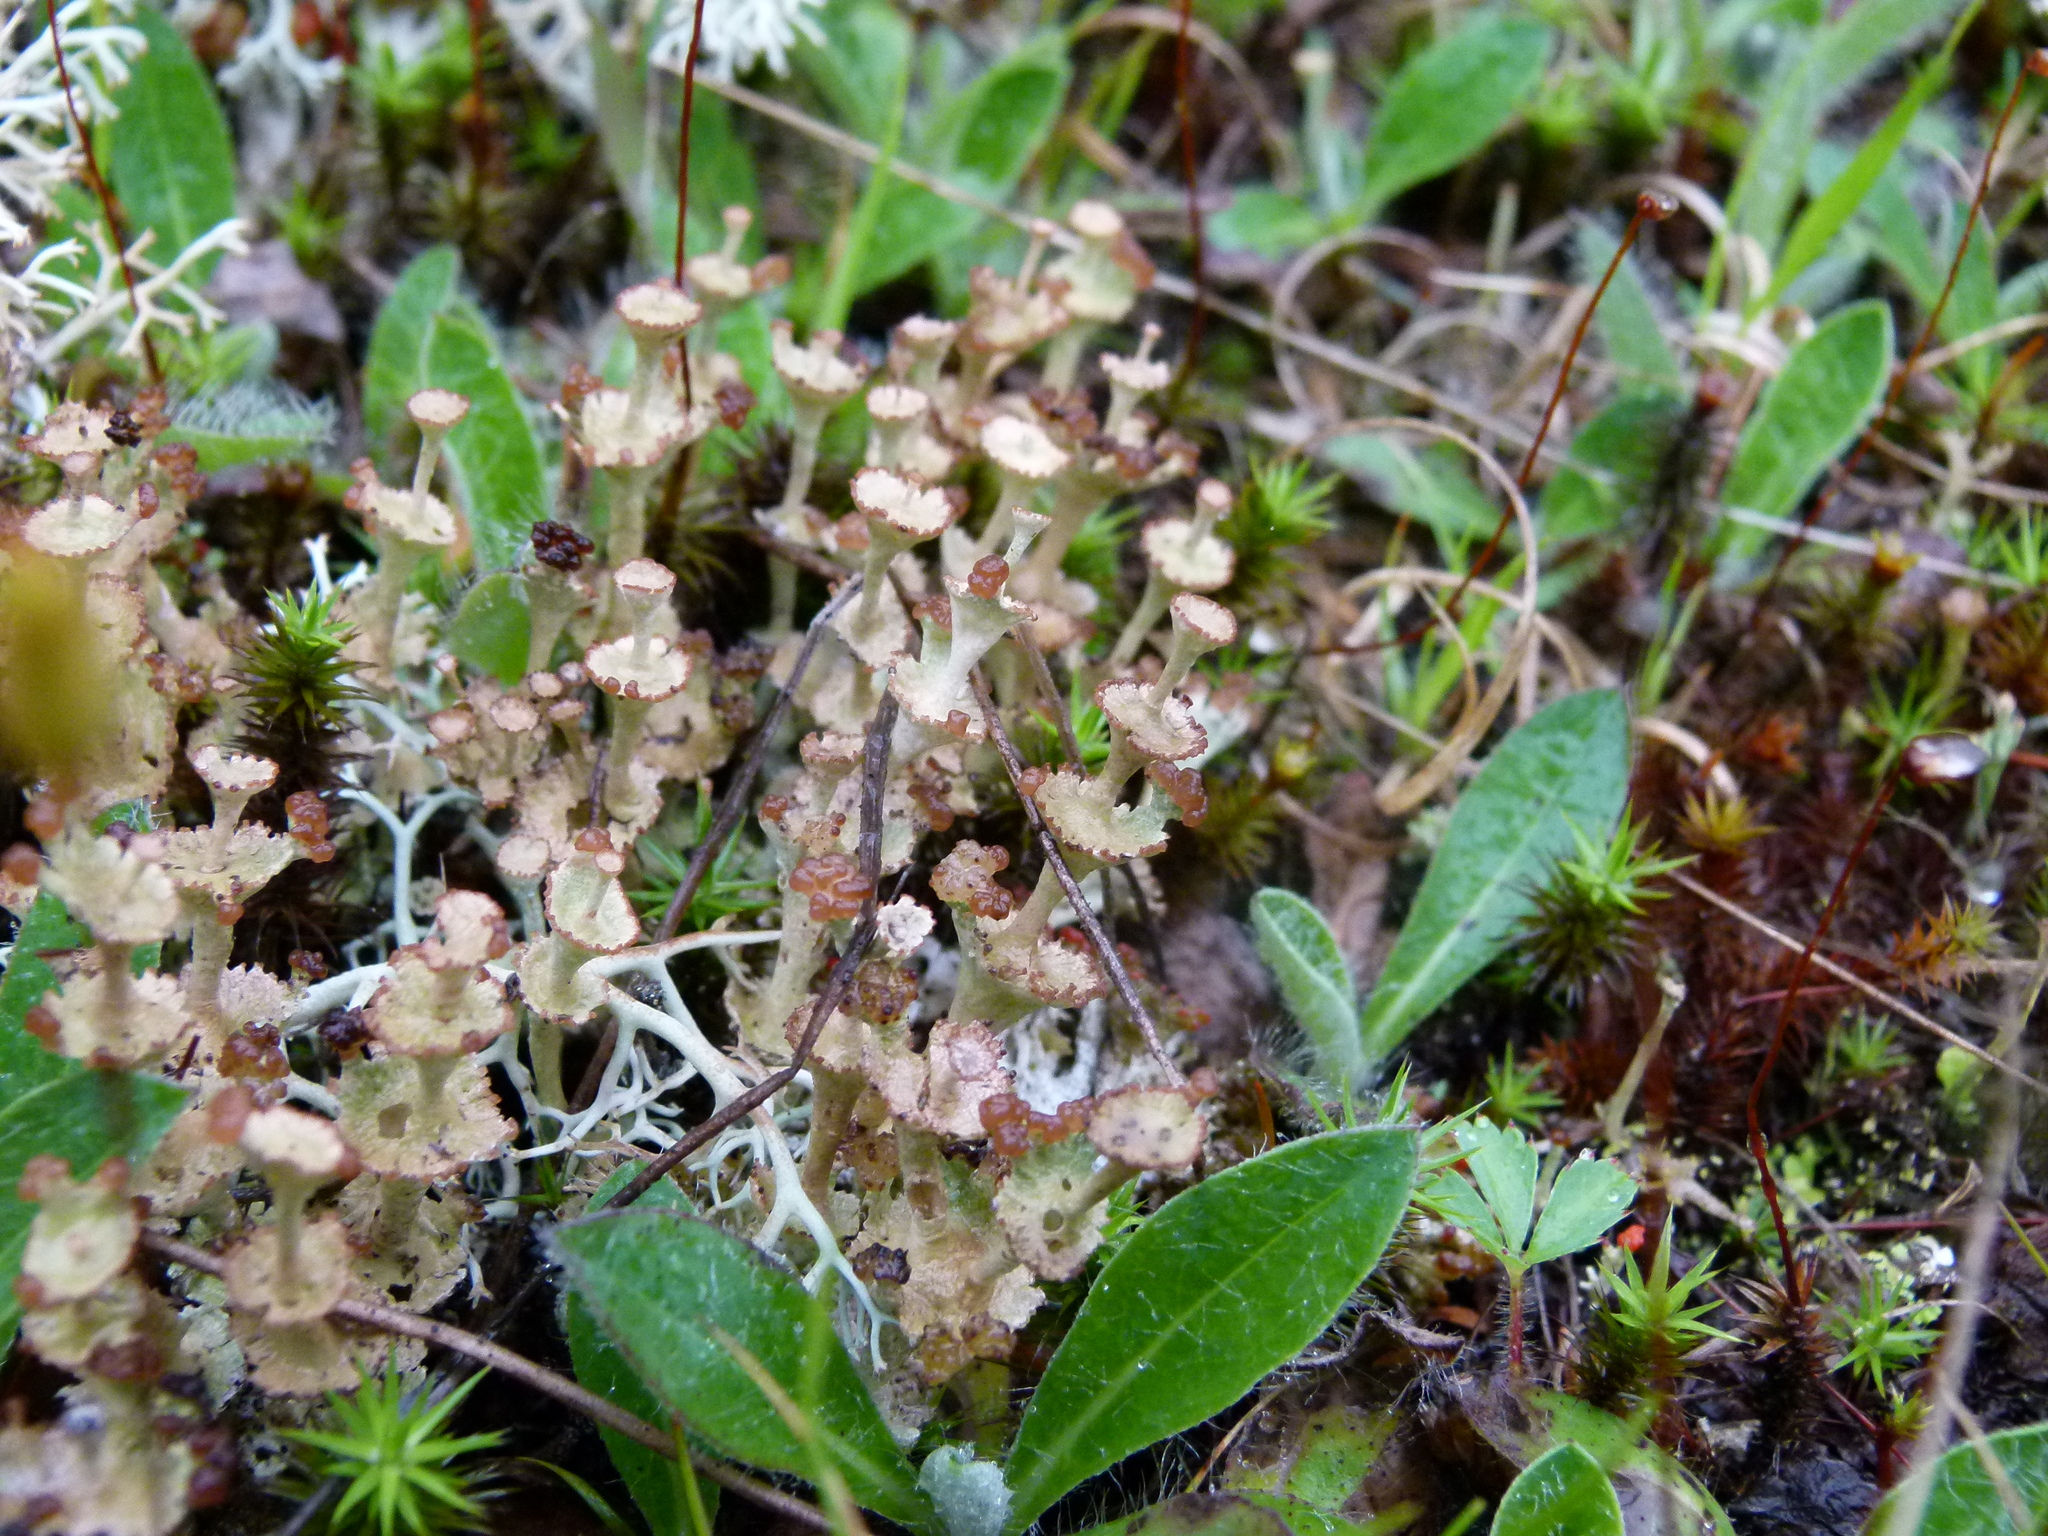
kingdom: Fungi
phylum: Ascomycota
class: Lecanoromycetes
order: Lecanorales
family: Cladoniaceae
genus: Cladonia
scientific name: Cladonia cervicornis
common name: Browned pixie-cup lichen
